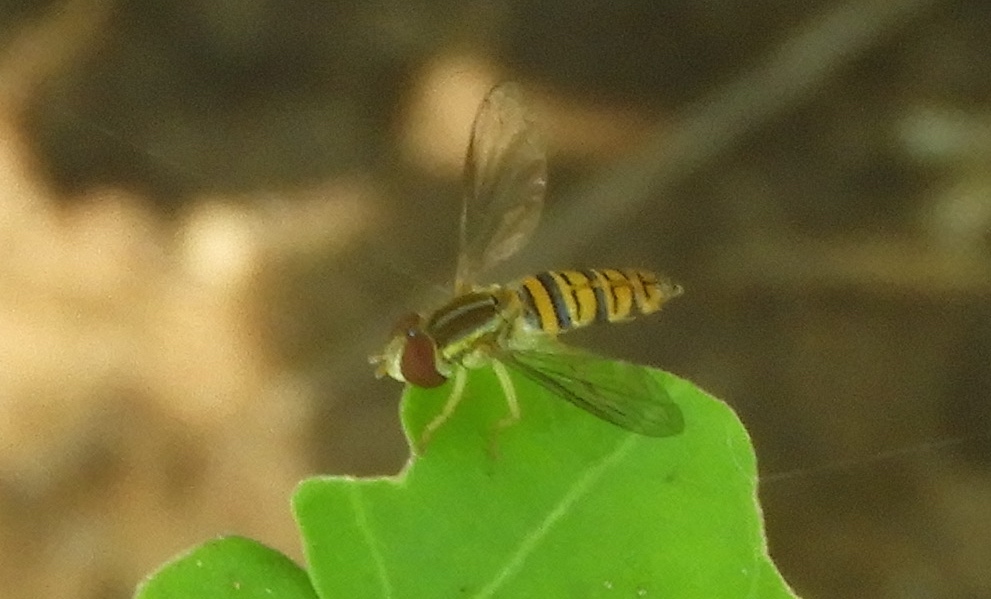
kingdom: Animalia
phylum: Arthropoda
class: Insecta
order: Diptera
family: Syrphidae
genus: Toxomerus
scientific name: Toxomerus politus
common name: Maize calligrapher
